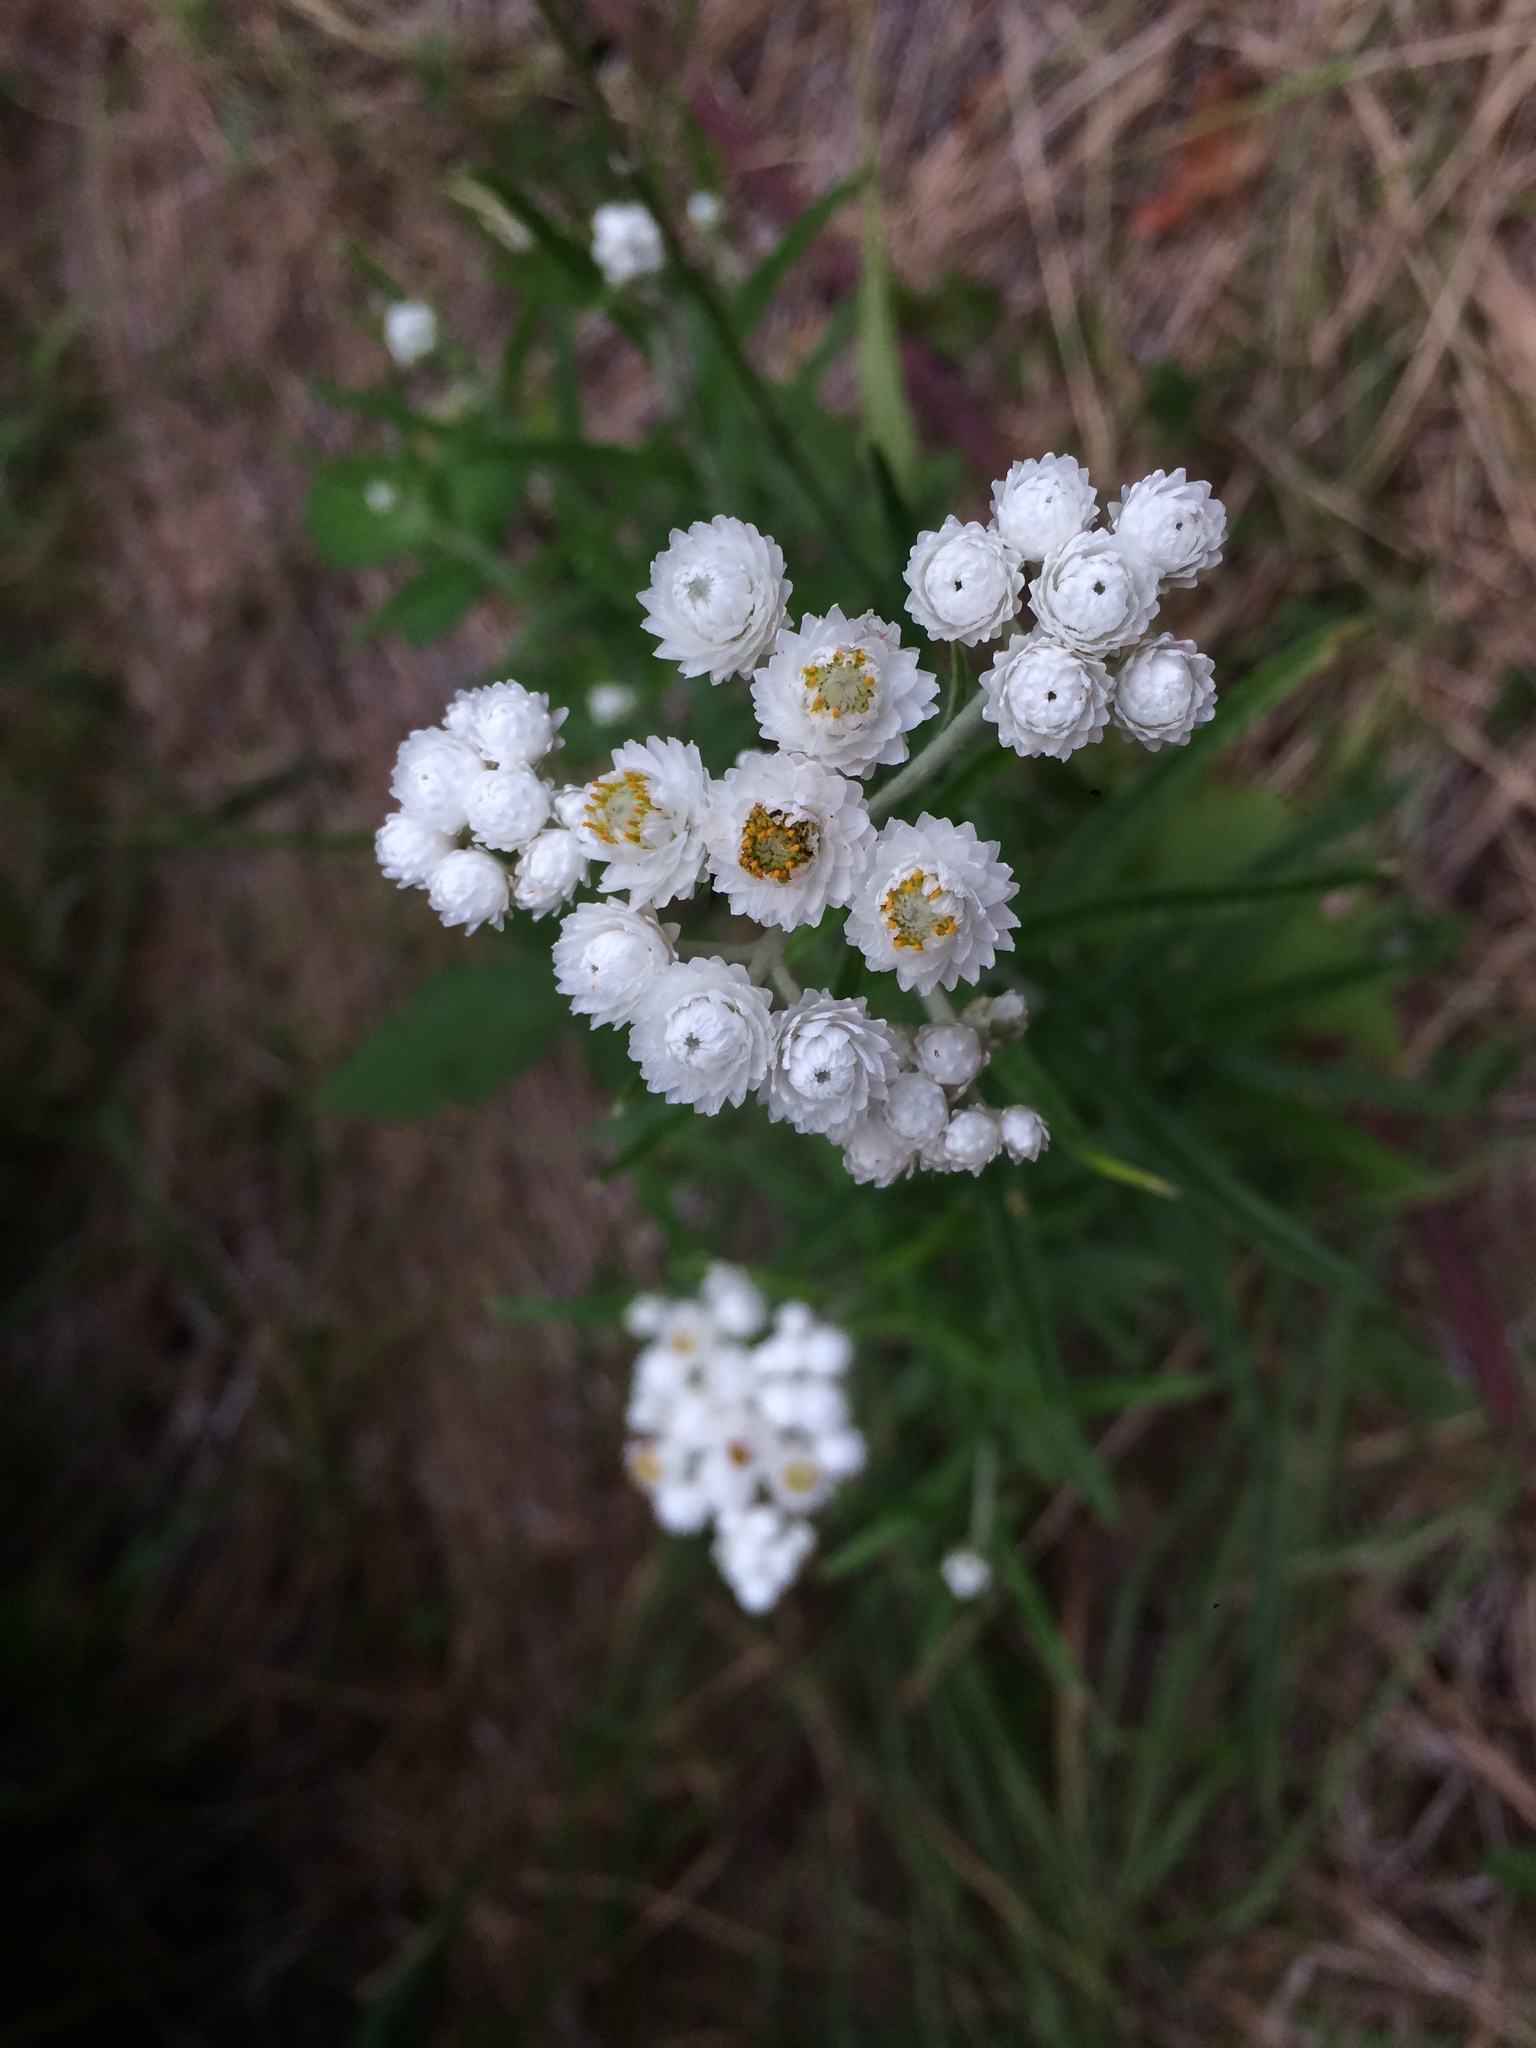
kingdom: Plantae
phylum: Tracheophyta
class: Magnoliopsida
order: Asterales
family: Asteraceae
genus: Anaphalis
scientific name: Anaphalis margaritacea
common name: Pearly everlasting
